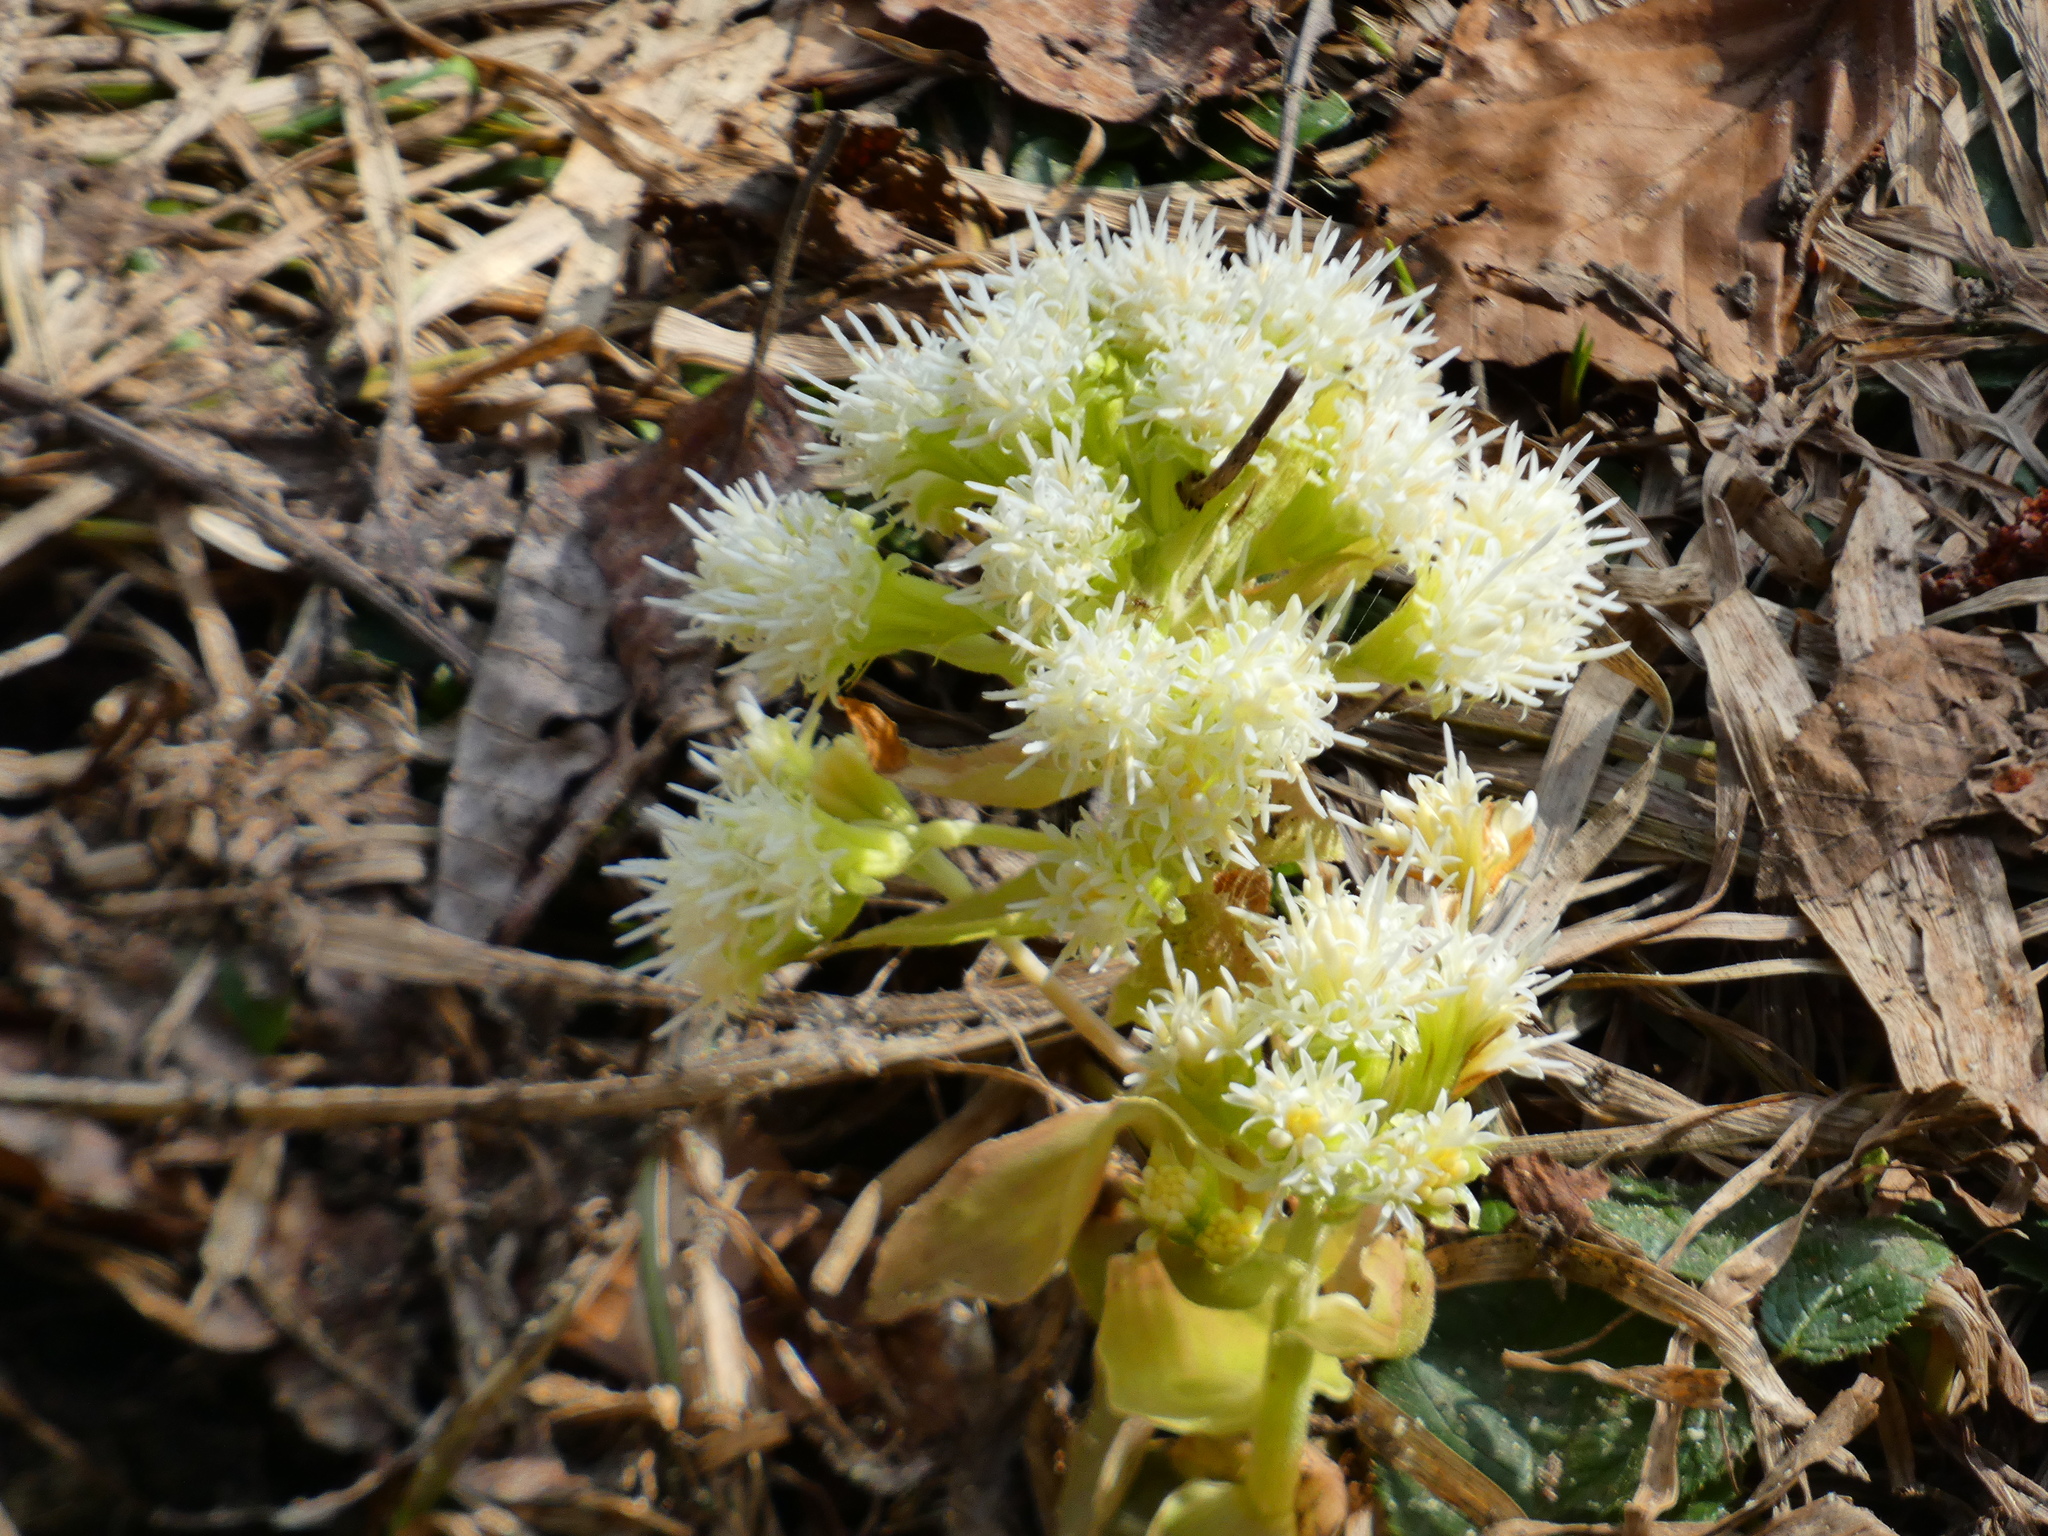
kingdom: Plantae
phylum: Tracheophyta
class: Magnoliopsida
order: Asterales
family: Asteraceae
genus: Petasites
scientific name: Petasites albus
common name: White butterbur
